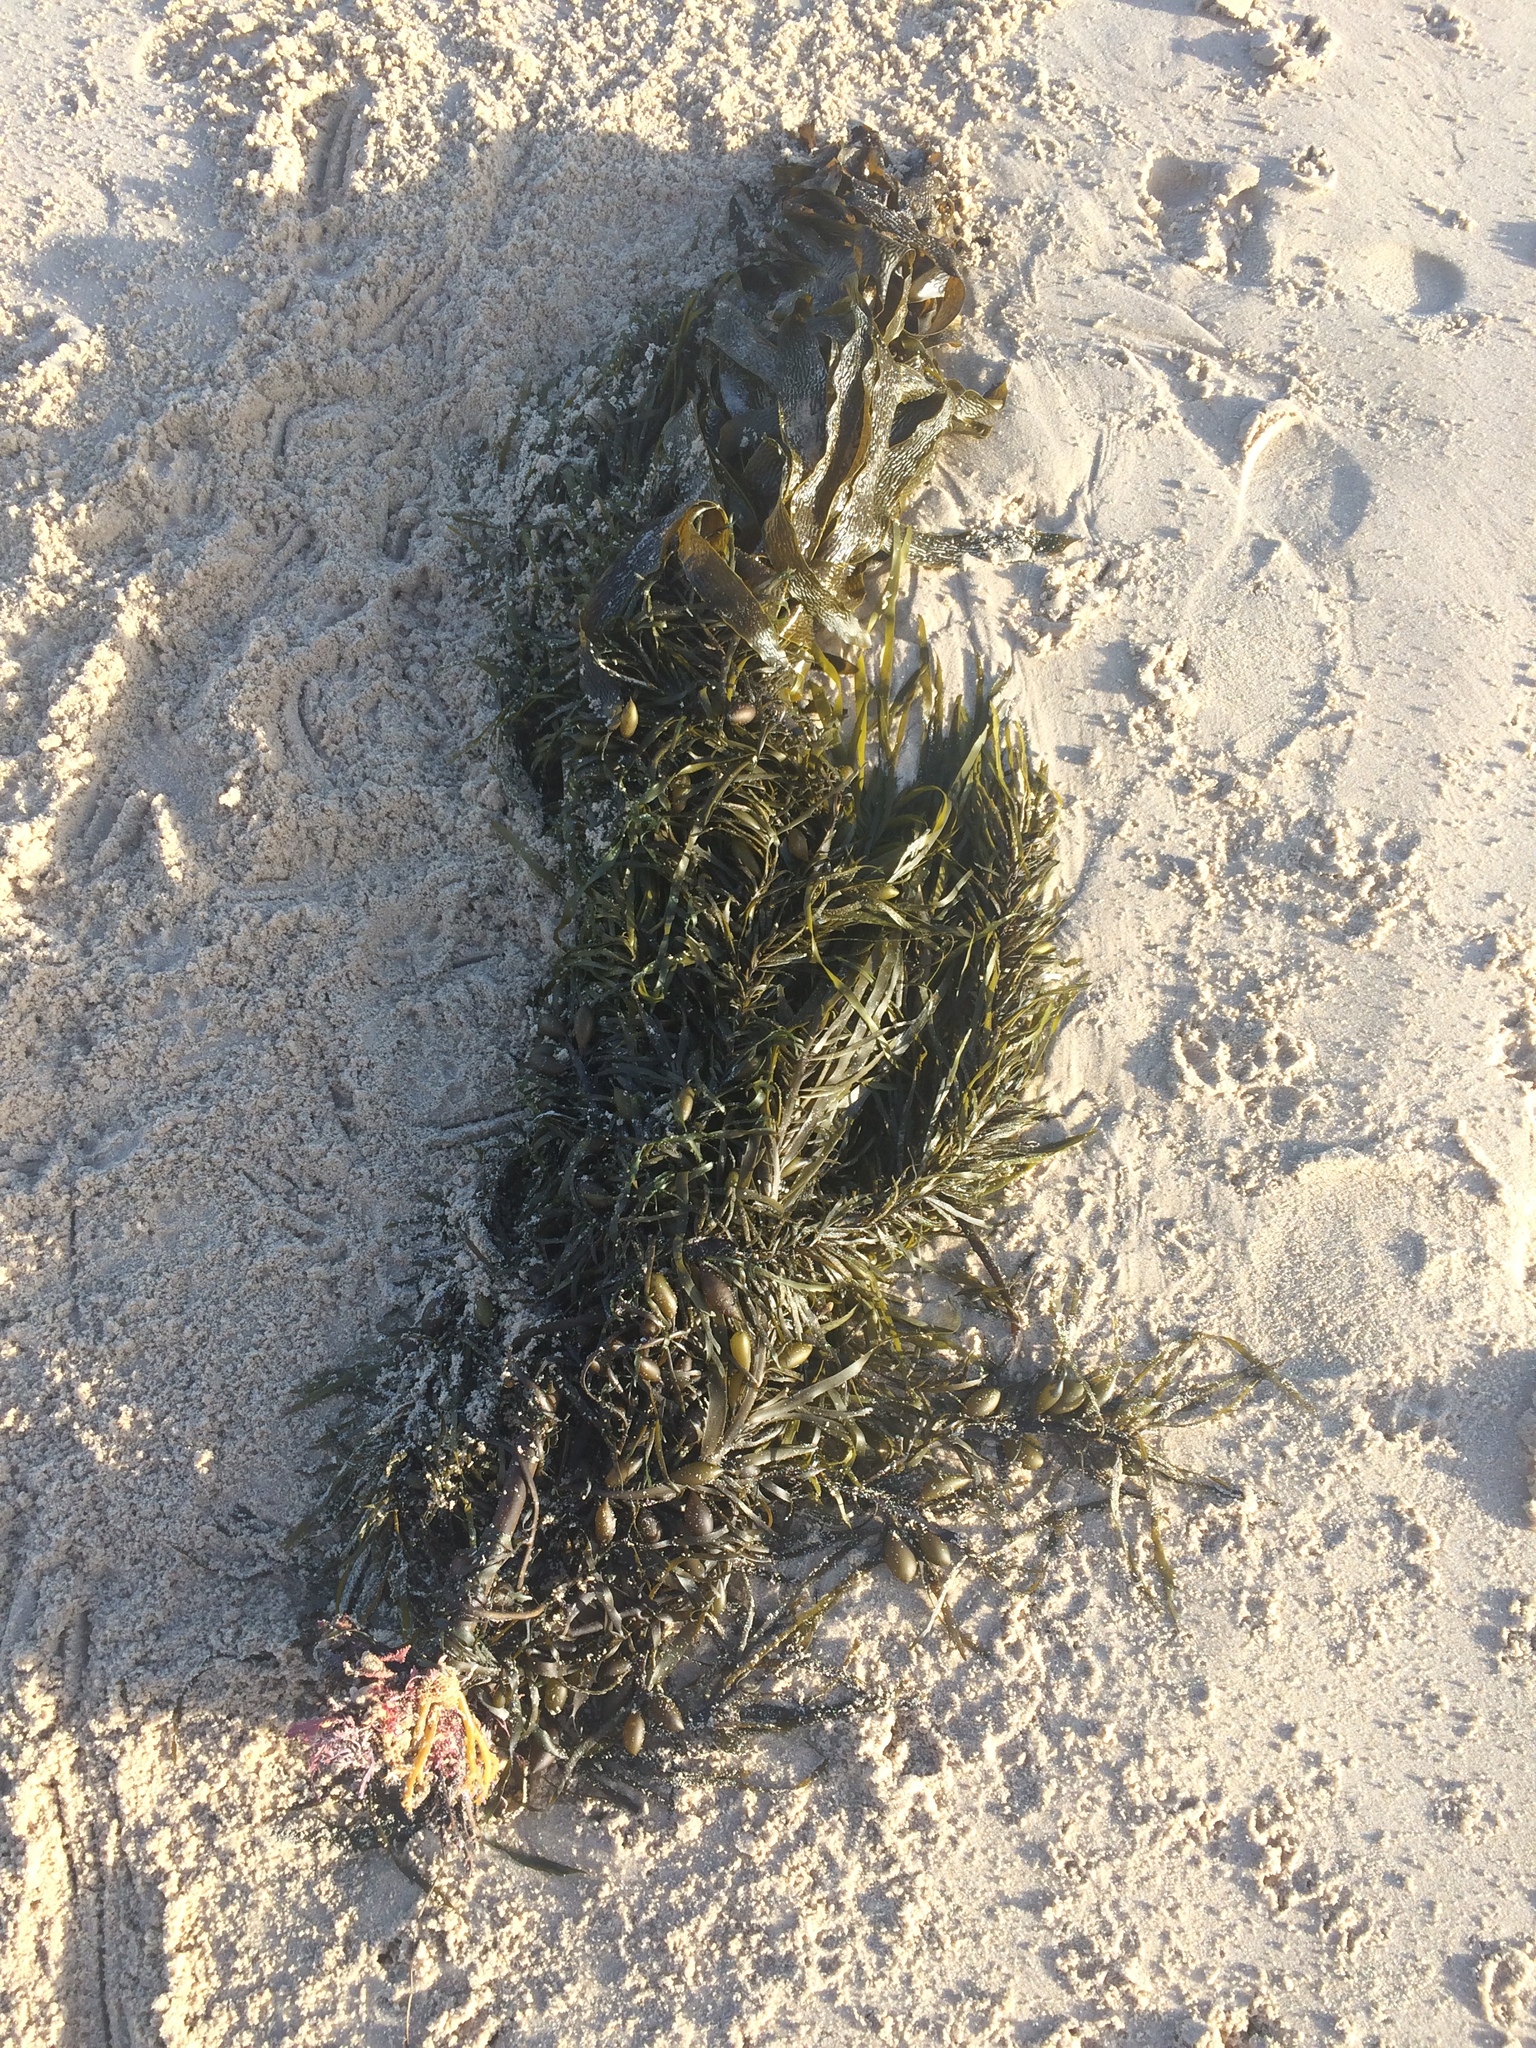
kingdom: Chromista
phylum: Ochrophyta
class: Phaeophyceae
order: Fucales
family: Seirococcaceae
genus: Phyllospora
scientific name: Phyllospora
